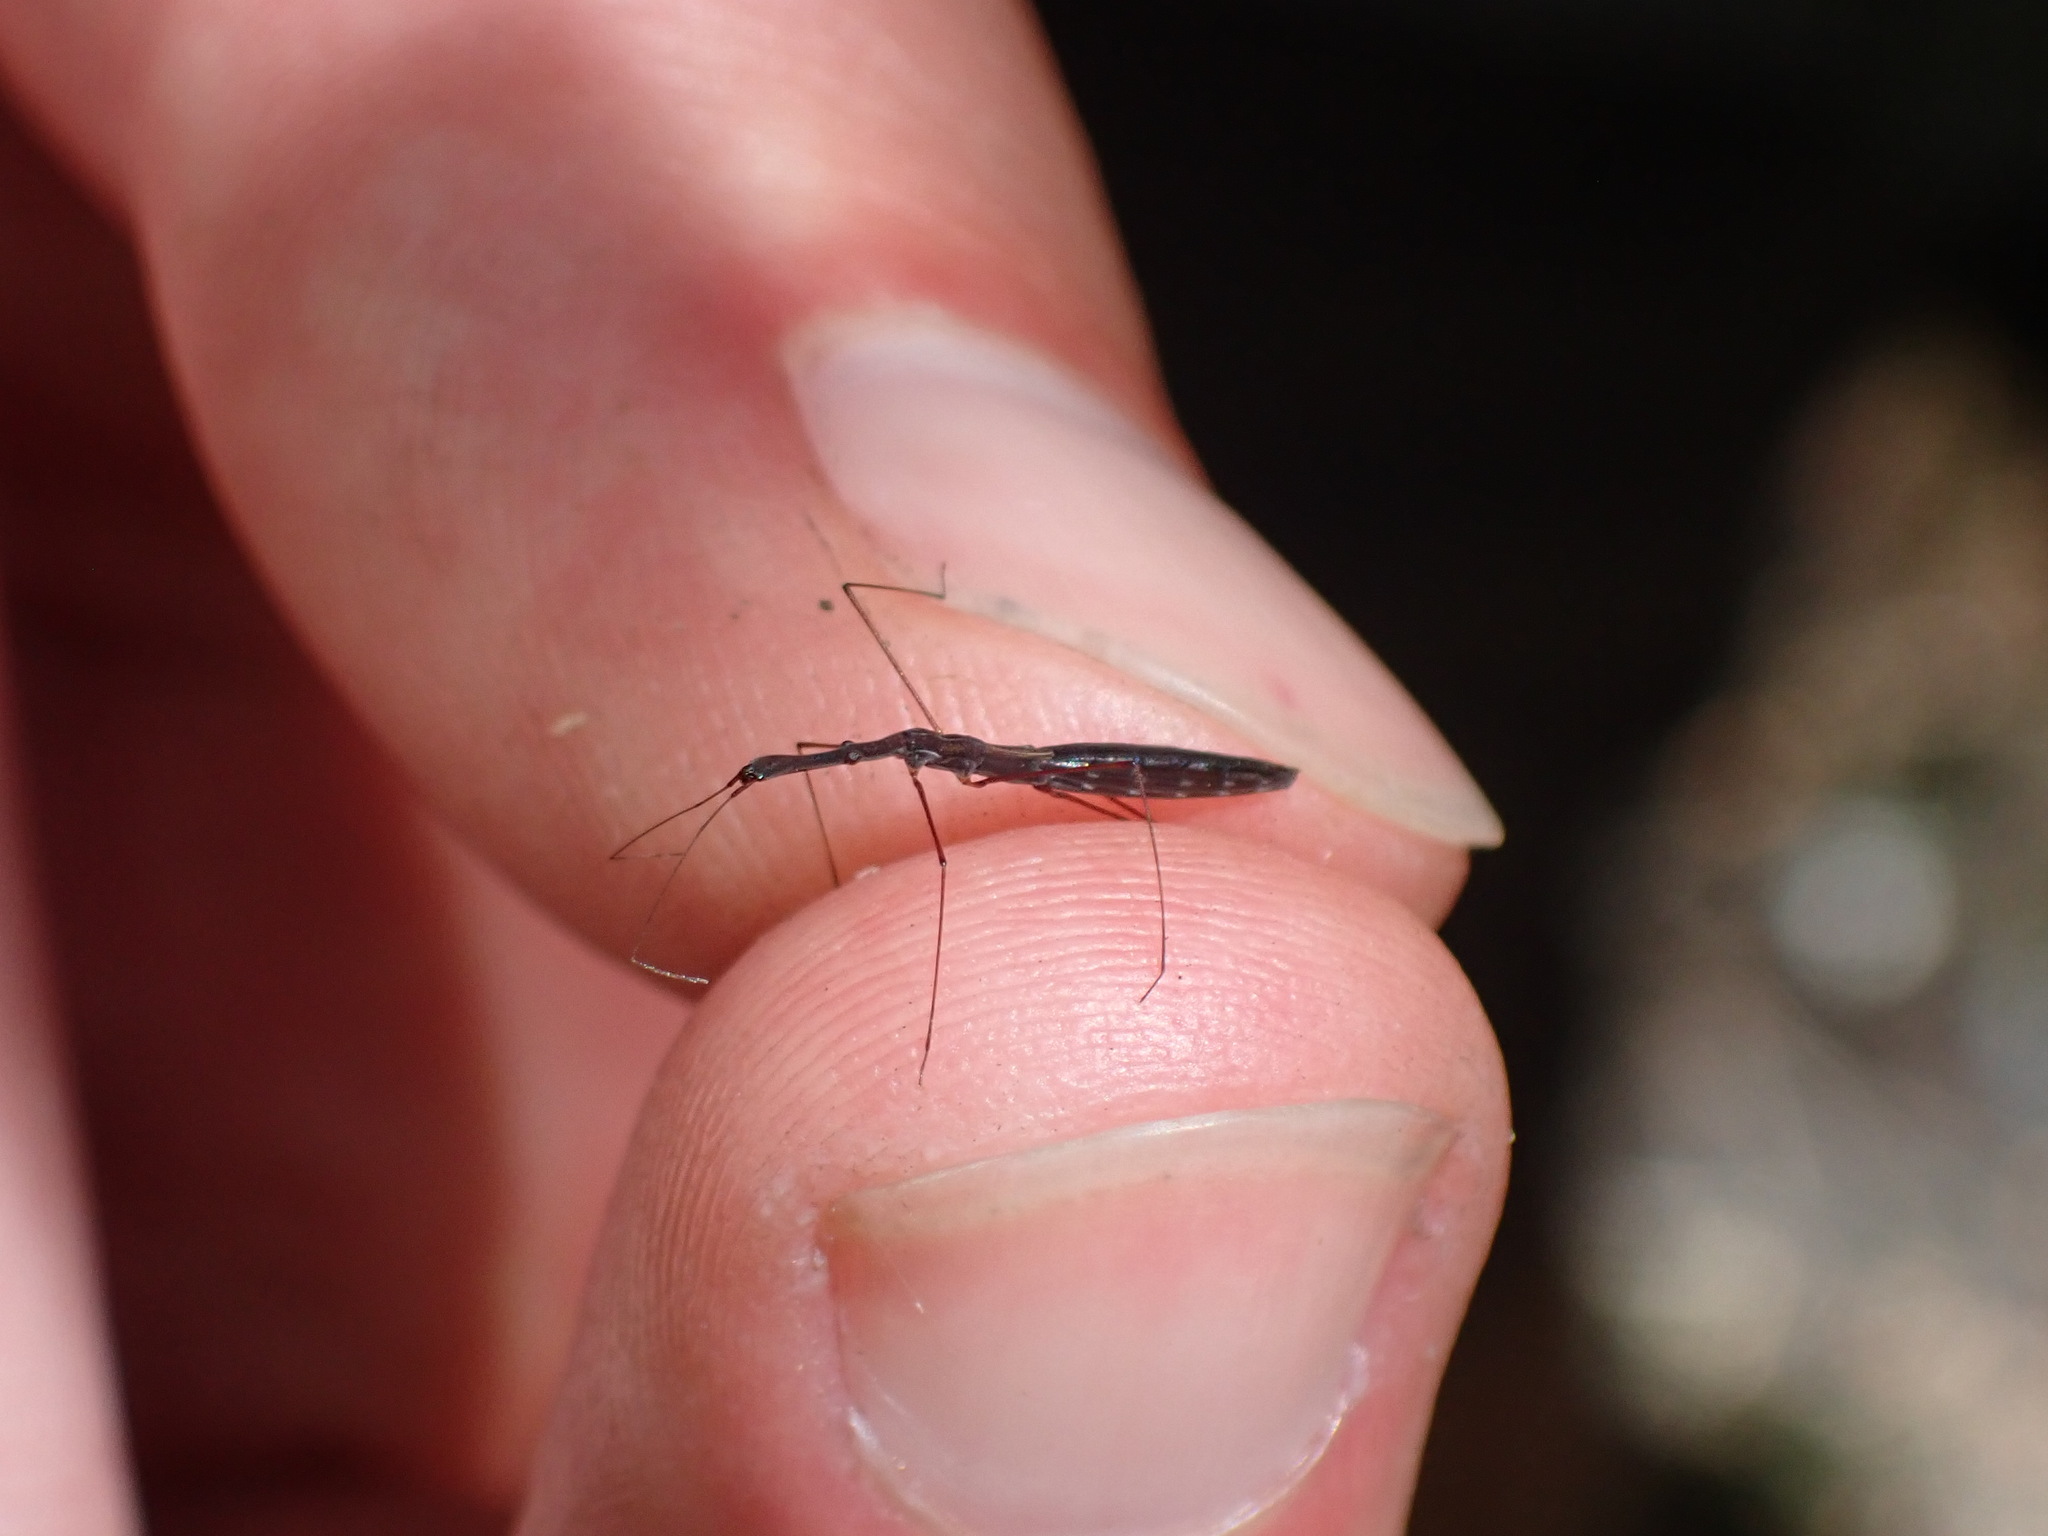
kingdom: Animalia
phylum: Arthropoda
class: Insecta
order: Hemiptera
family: Hydrometridae
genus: Hydrometra
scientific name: Hydrometra stagnorum
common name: Water measurer
